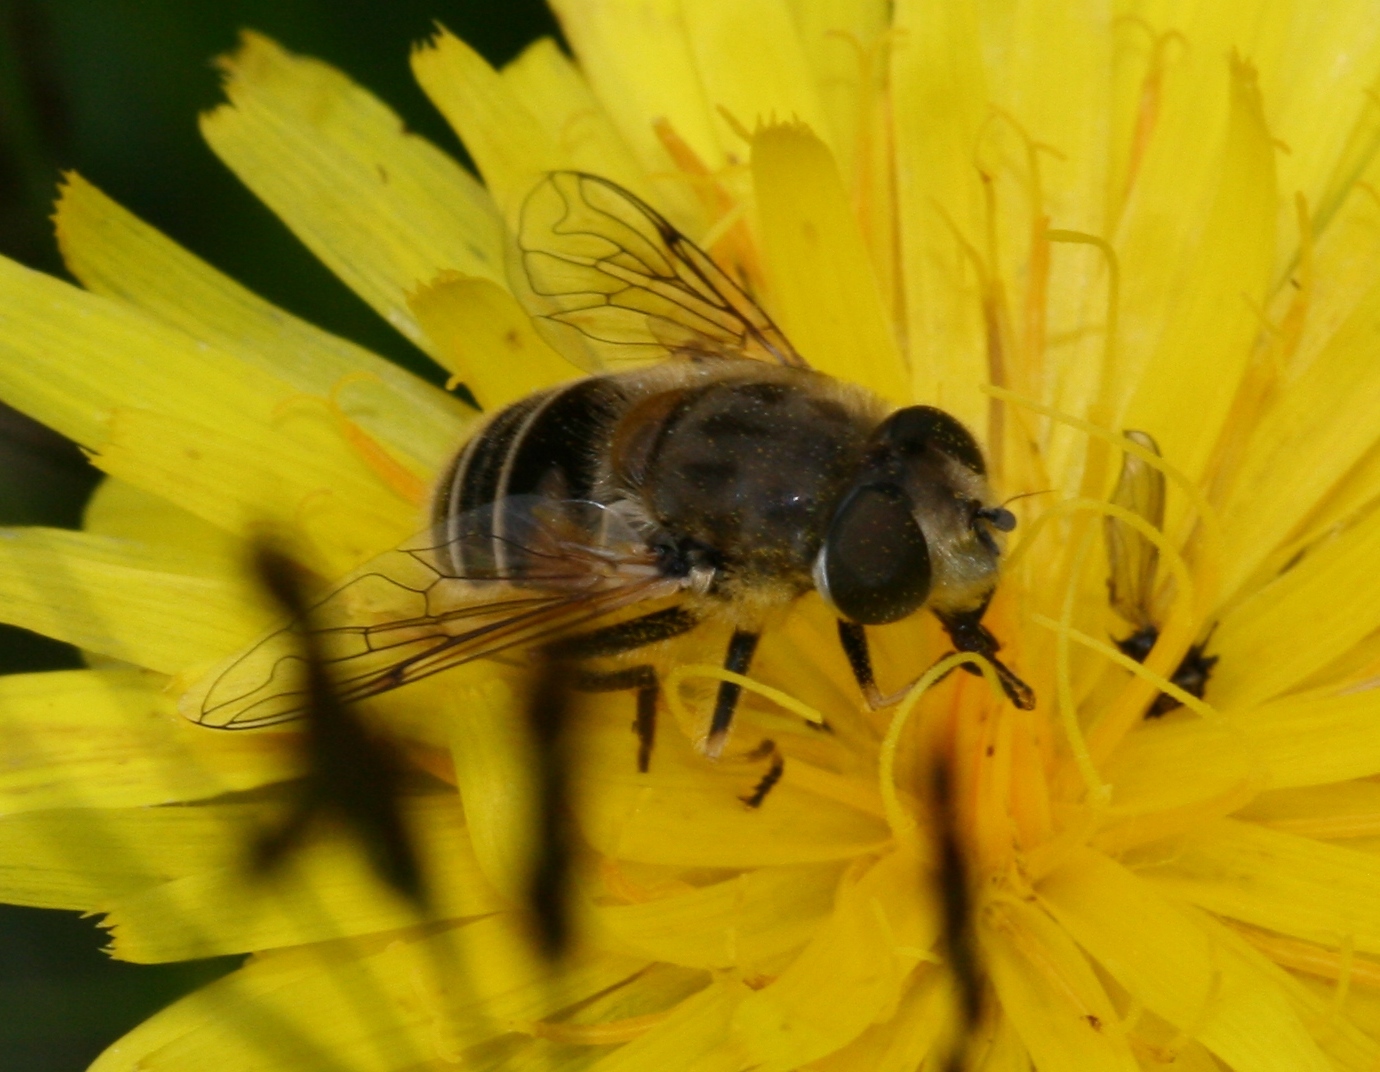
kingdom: Animalia
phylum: Arthropoda
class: Insecta
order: Diptera
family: Syrphidae
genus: Eristalis
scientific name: Eristalis arbustorum
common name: Hover fly
